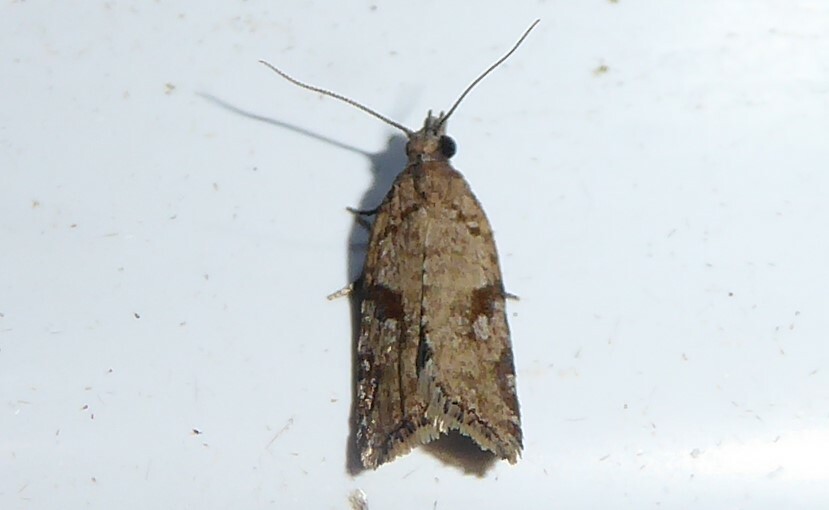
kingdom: Animalia
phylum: Arthropoda
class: Insecta
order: Lepidoptera
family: Tortricidae
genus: Capua
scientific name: Capua semiferana
